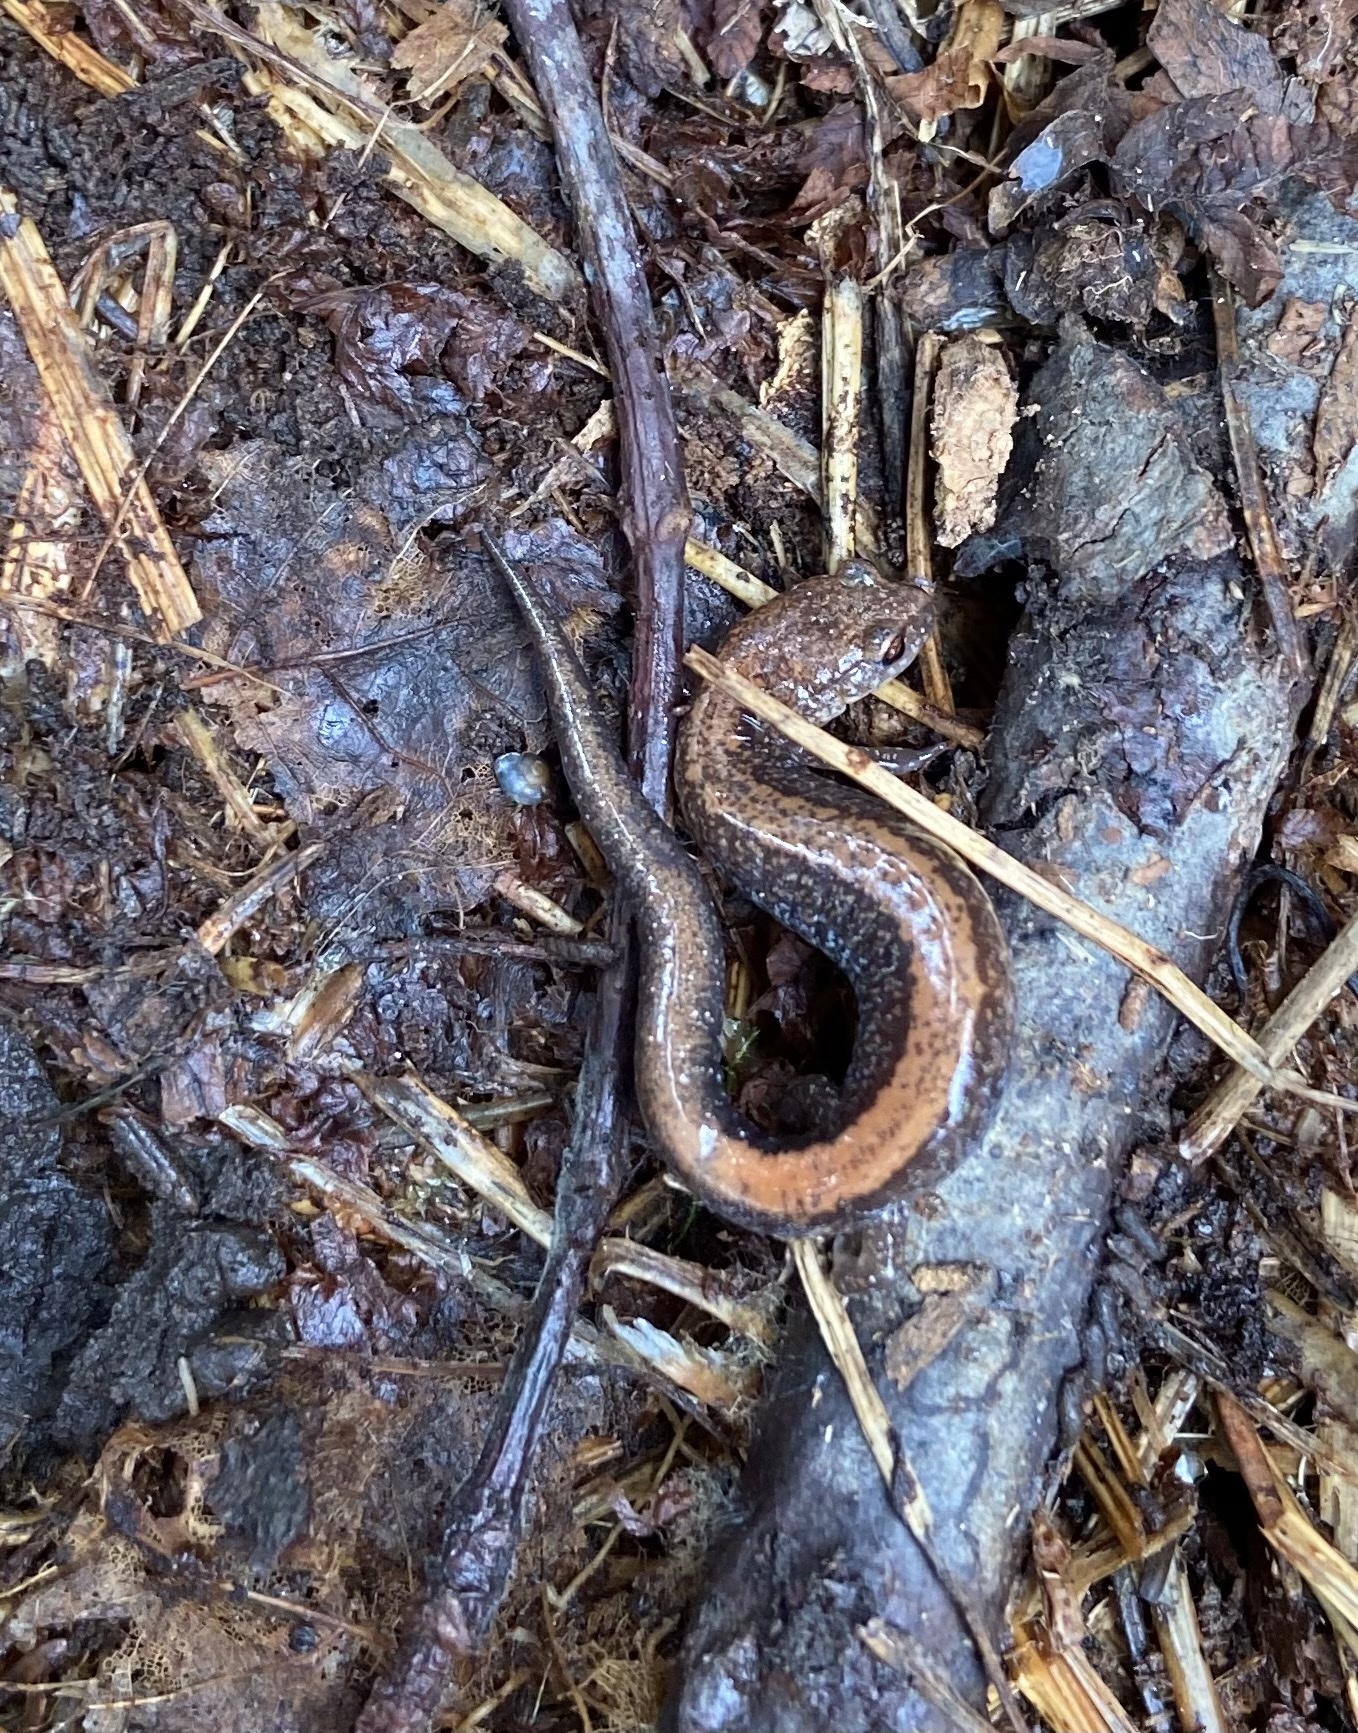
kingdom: Animalia
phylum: Chordata
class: Amphibia
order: Caudata
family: Plethodontidae
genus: Plethodon
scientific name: Plethodon cinereus
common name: Redback salamander
